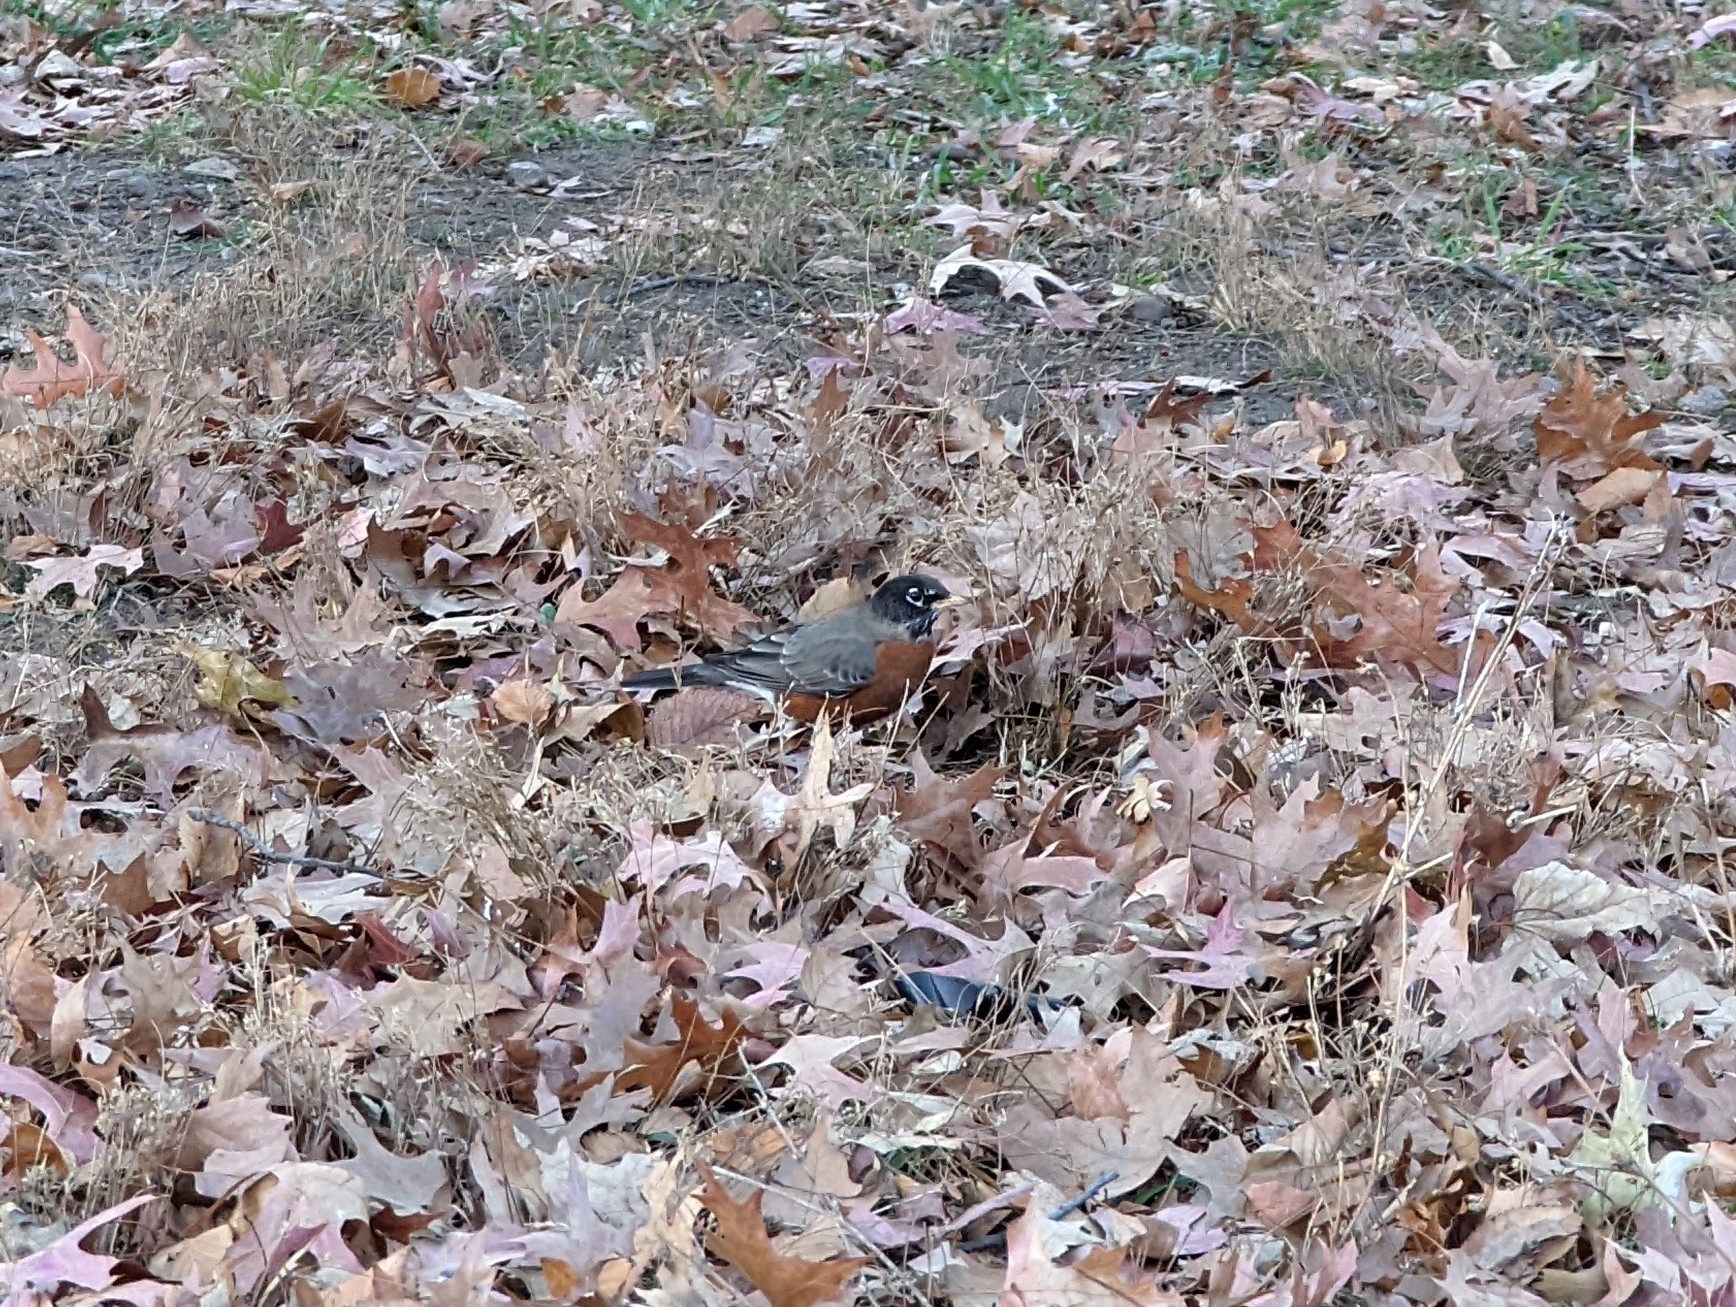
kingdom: Animalia
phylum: Chordata
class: Aves
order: Passeriformes
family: Turdidae
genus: Turdus
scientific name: Turdus migratorius
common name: American robin
